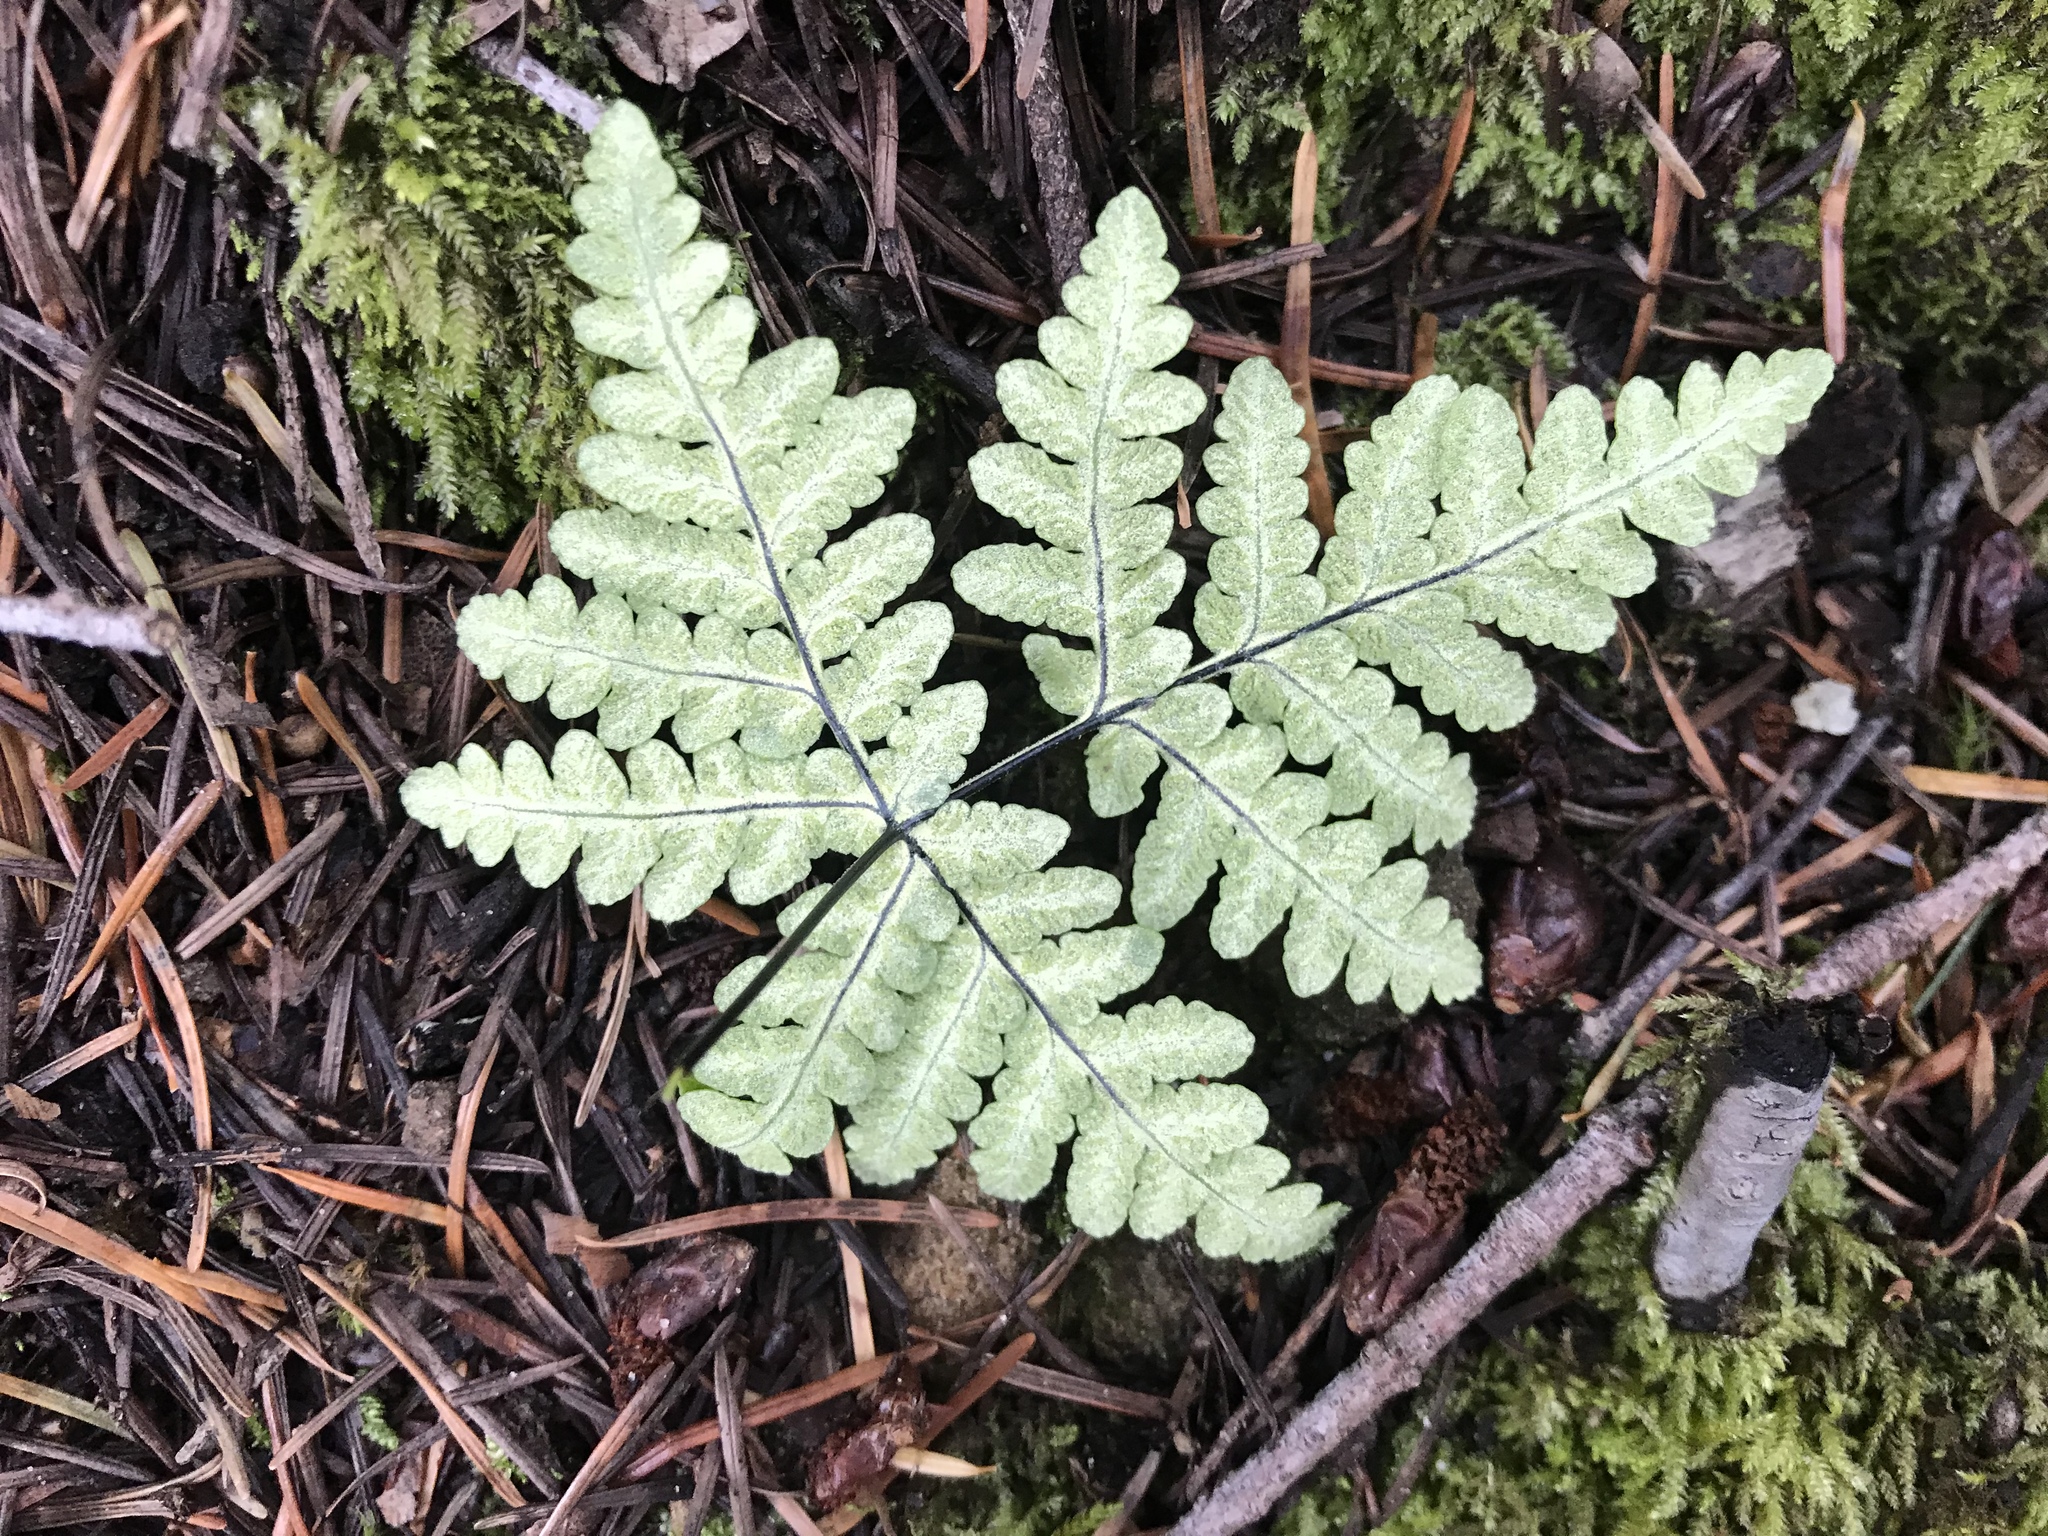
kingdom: Plantae
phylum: Tracheophyta
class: Polypodiopsida
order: Polypodiales
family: Pteridaceae
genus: Pentagramma
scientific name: Pentagramma triangularis
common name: Gold fern
